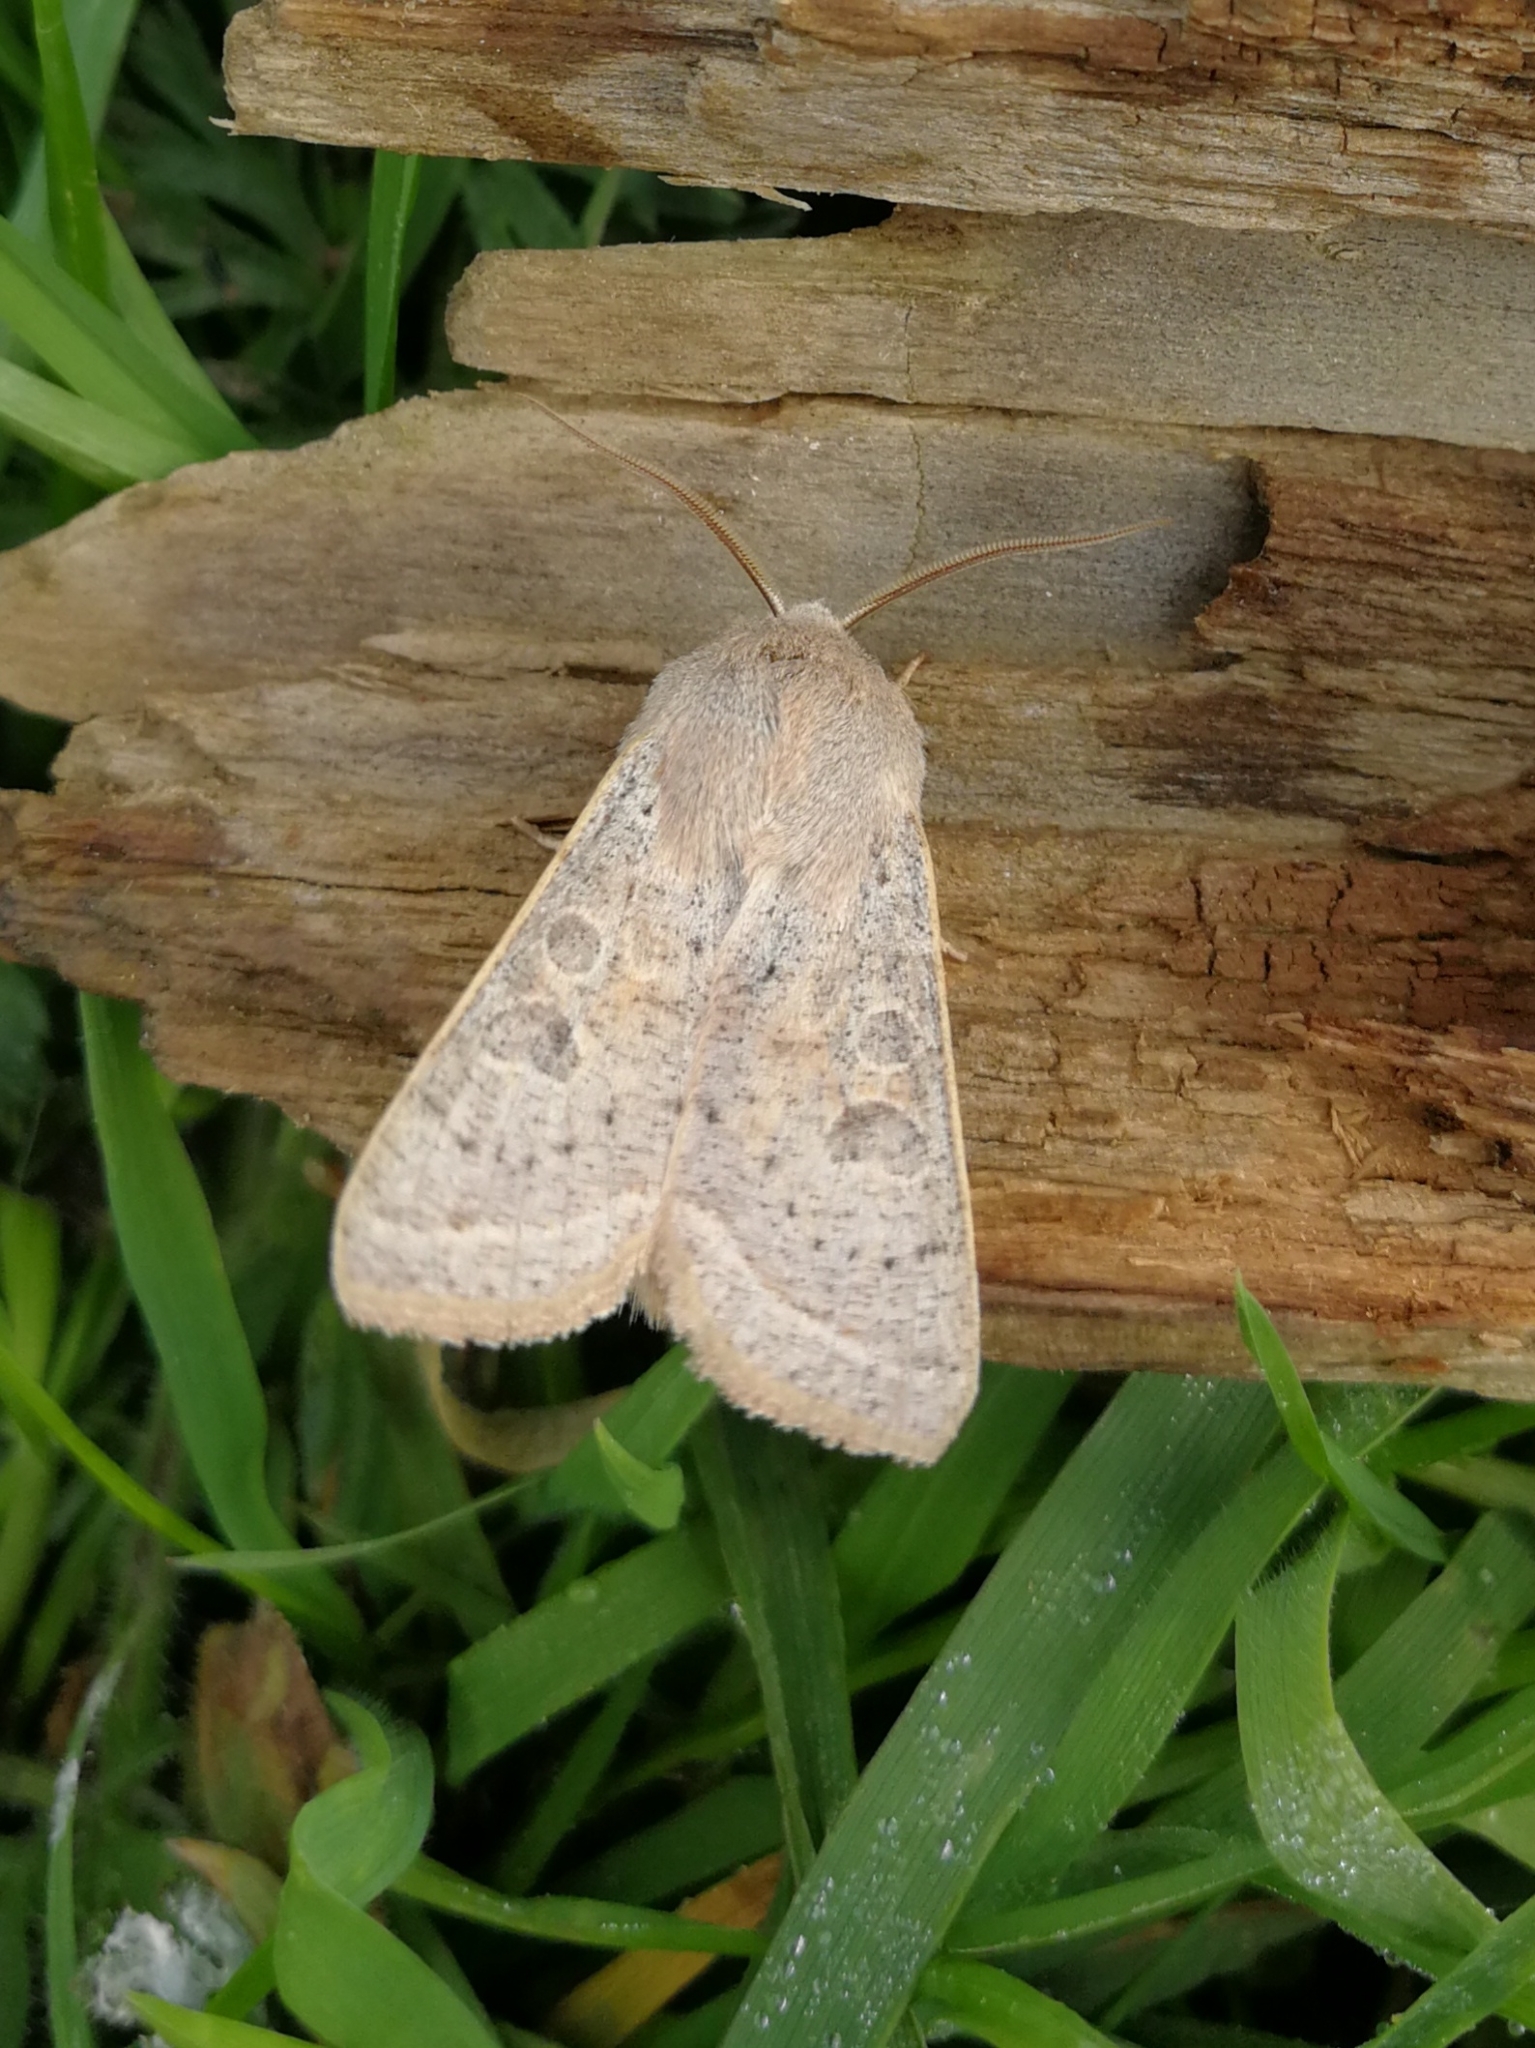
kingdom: Animalia
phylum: Arthropoda
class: Insecta
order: Lepidoptera
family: Noctuidae
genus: Orthosia
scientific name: Orthosia gracilis
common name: Powdered quaker
